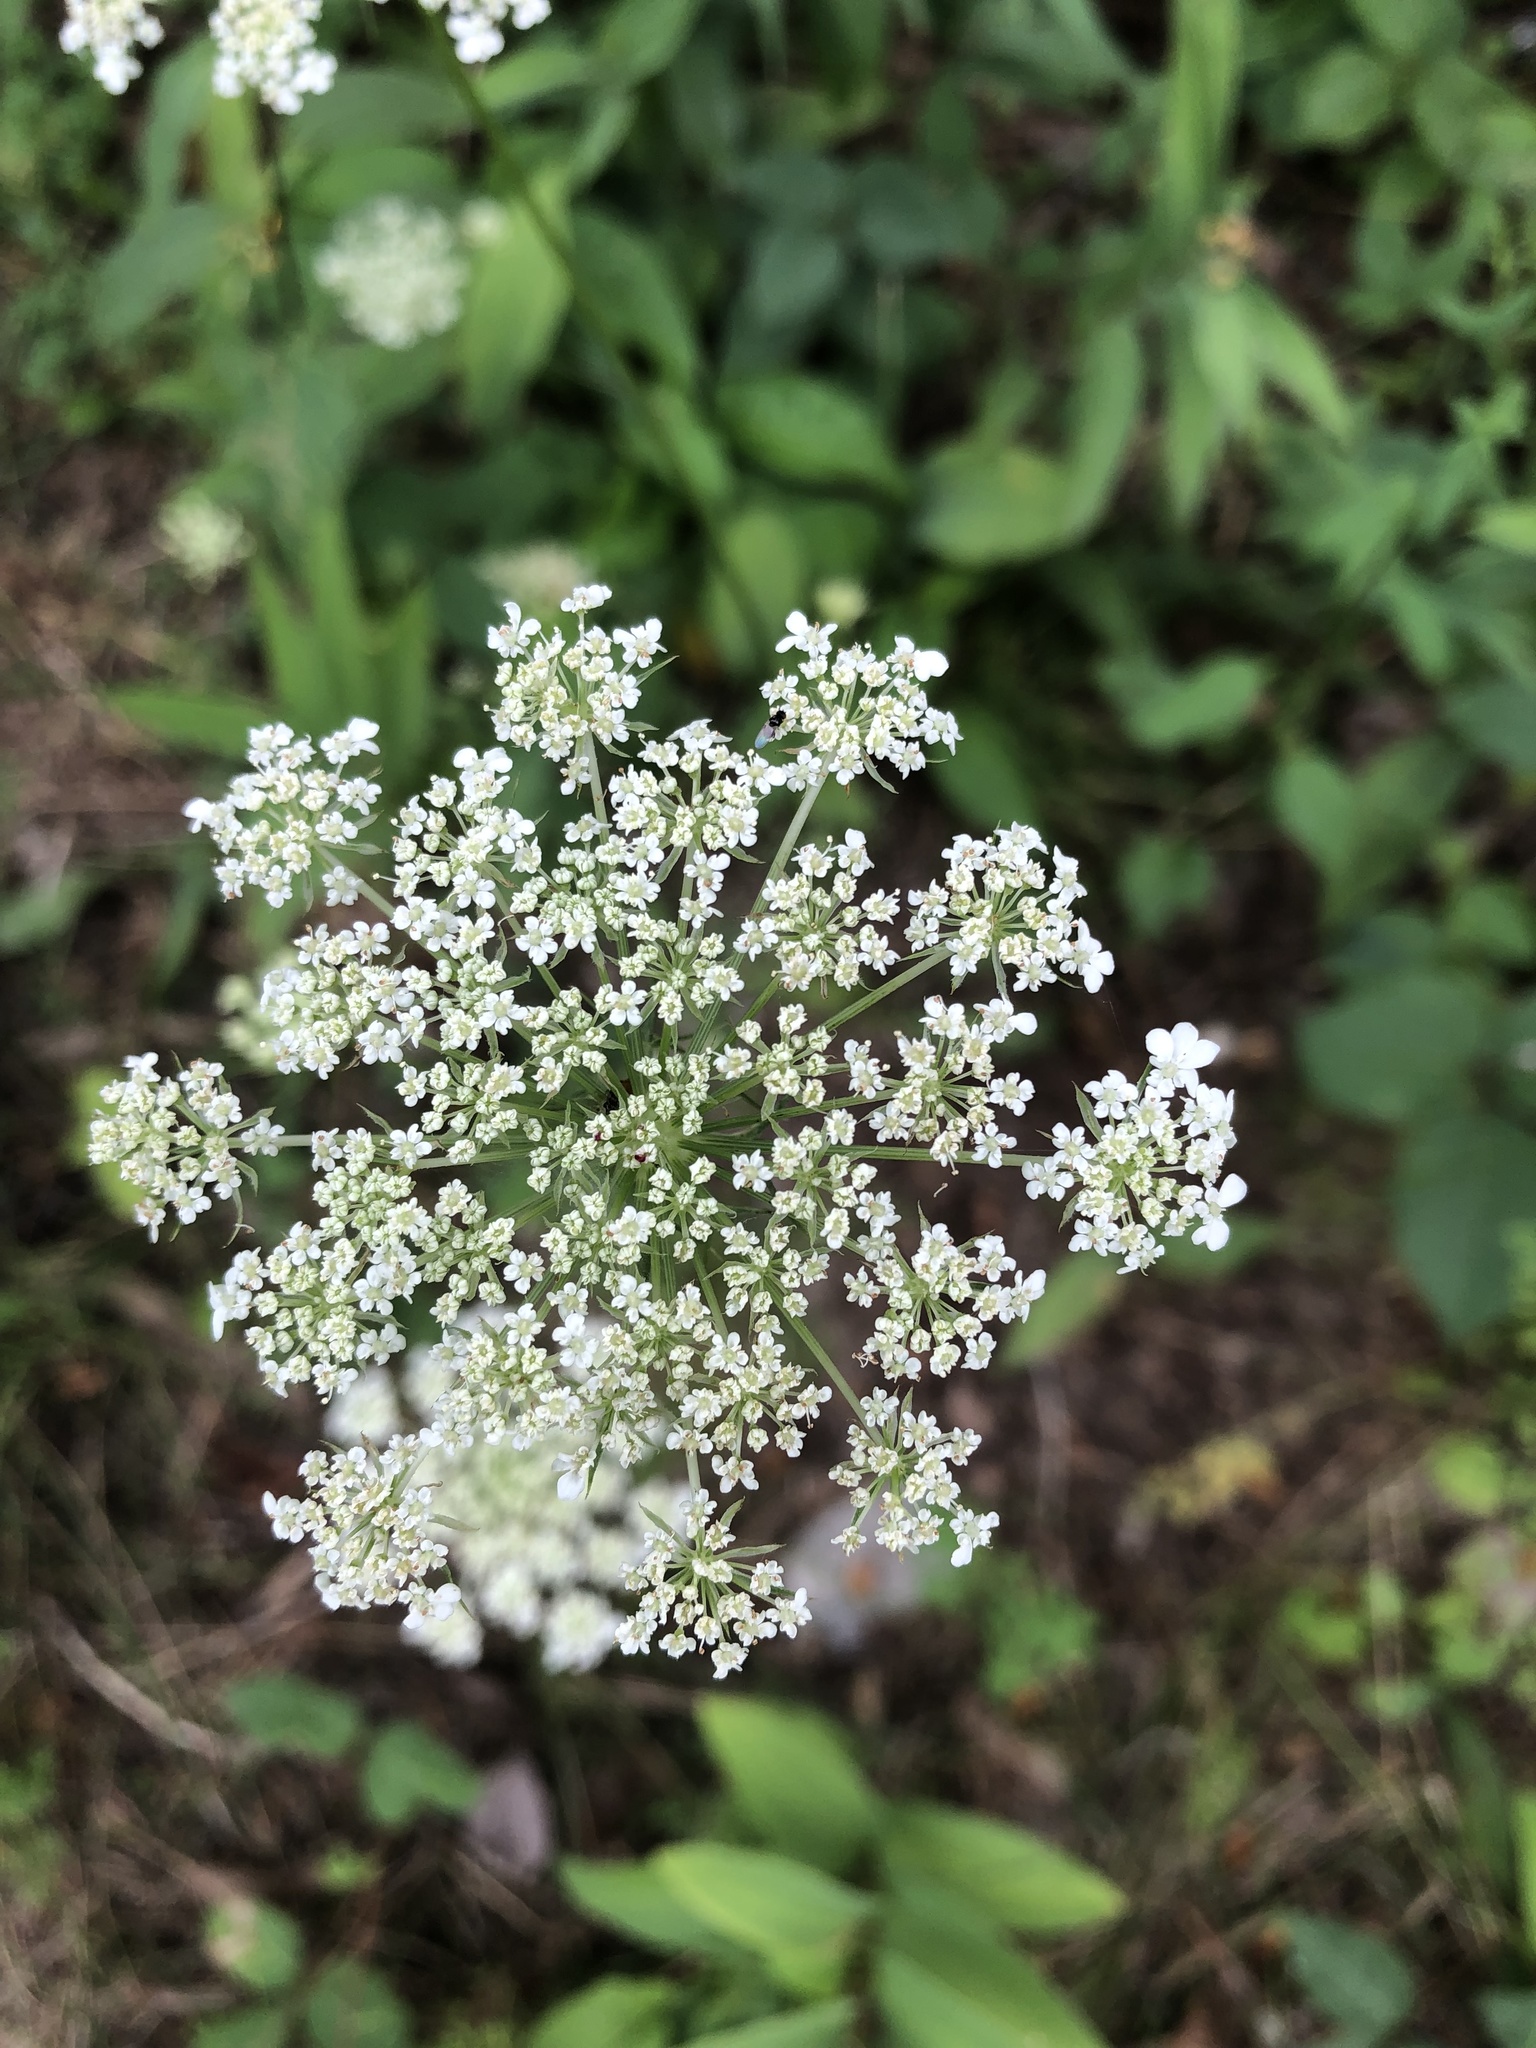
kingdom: Plantae
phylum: Tracheophyta
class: Magnoliopsida
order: Apiales
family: Apiaceae
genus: Daucus
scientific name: Daucus carota
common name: Wild carrot
